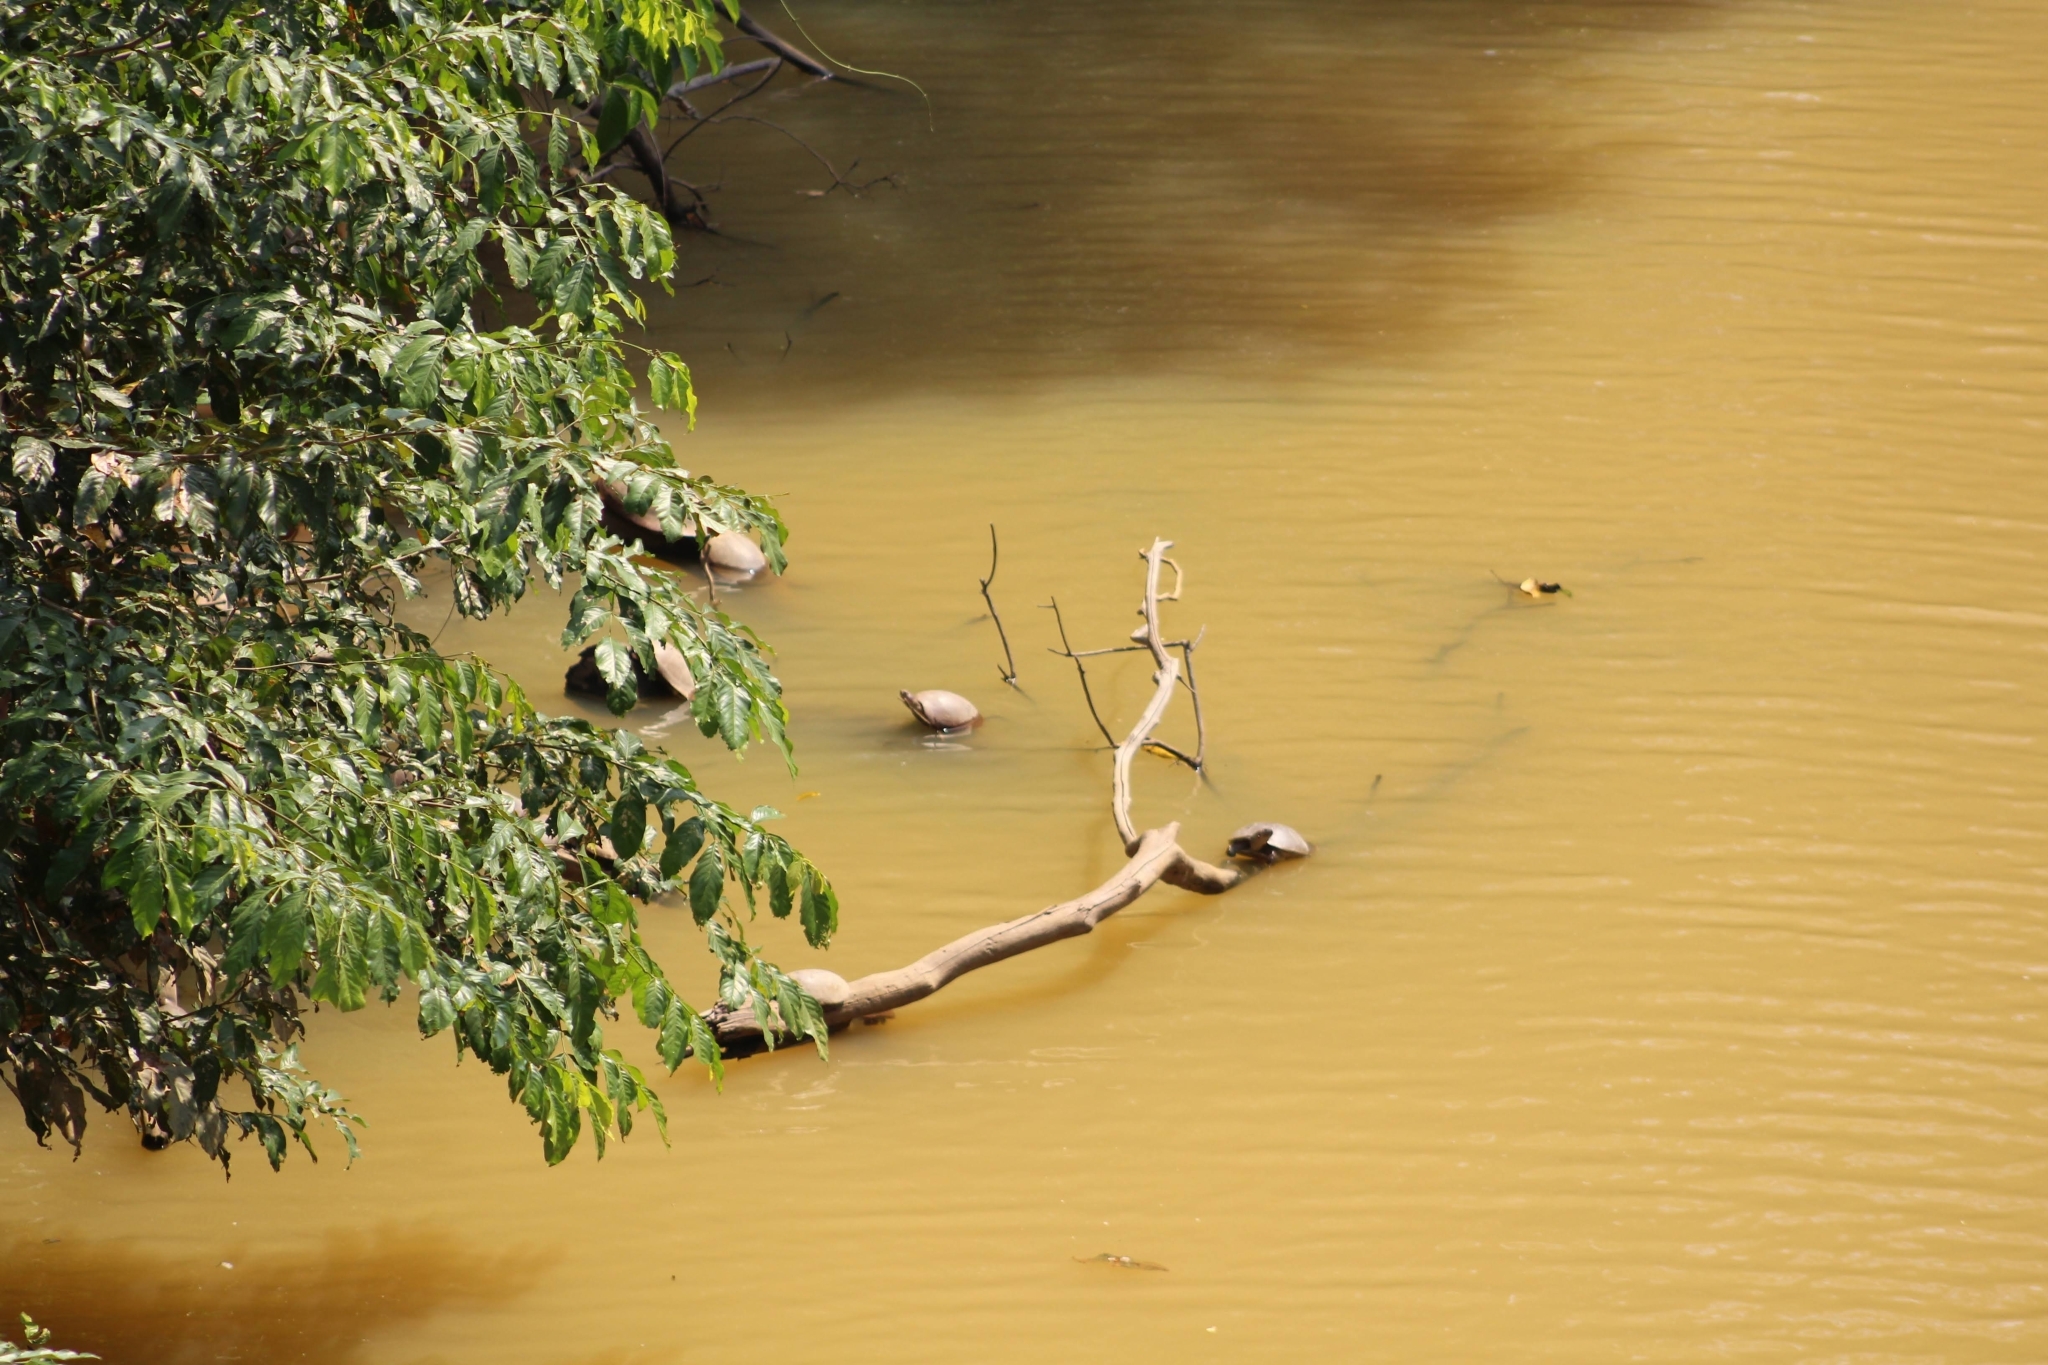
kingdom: Animalia
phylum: Chordata
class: Testudines
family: Podocnemididae
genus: Podocnemis
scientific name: Podocnemis vogli
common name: Savanna side-necked turtle
